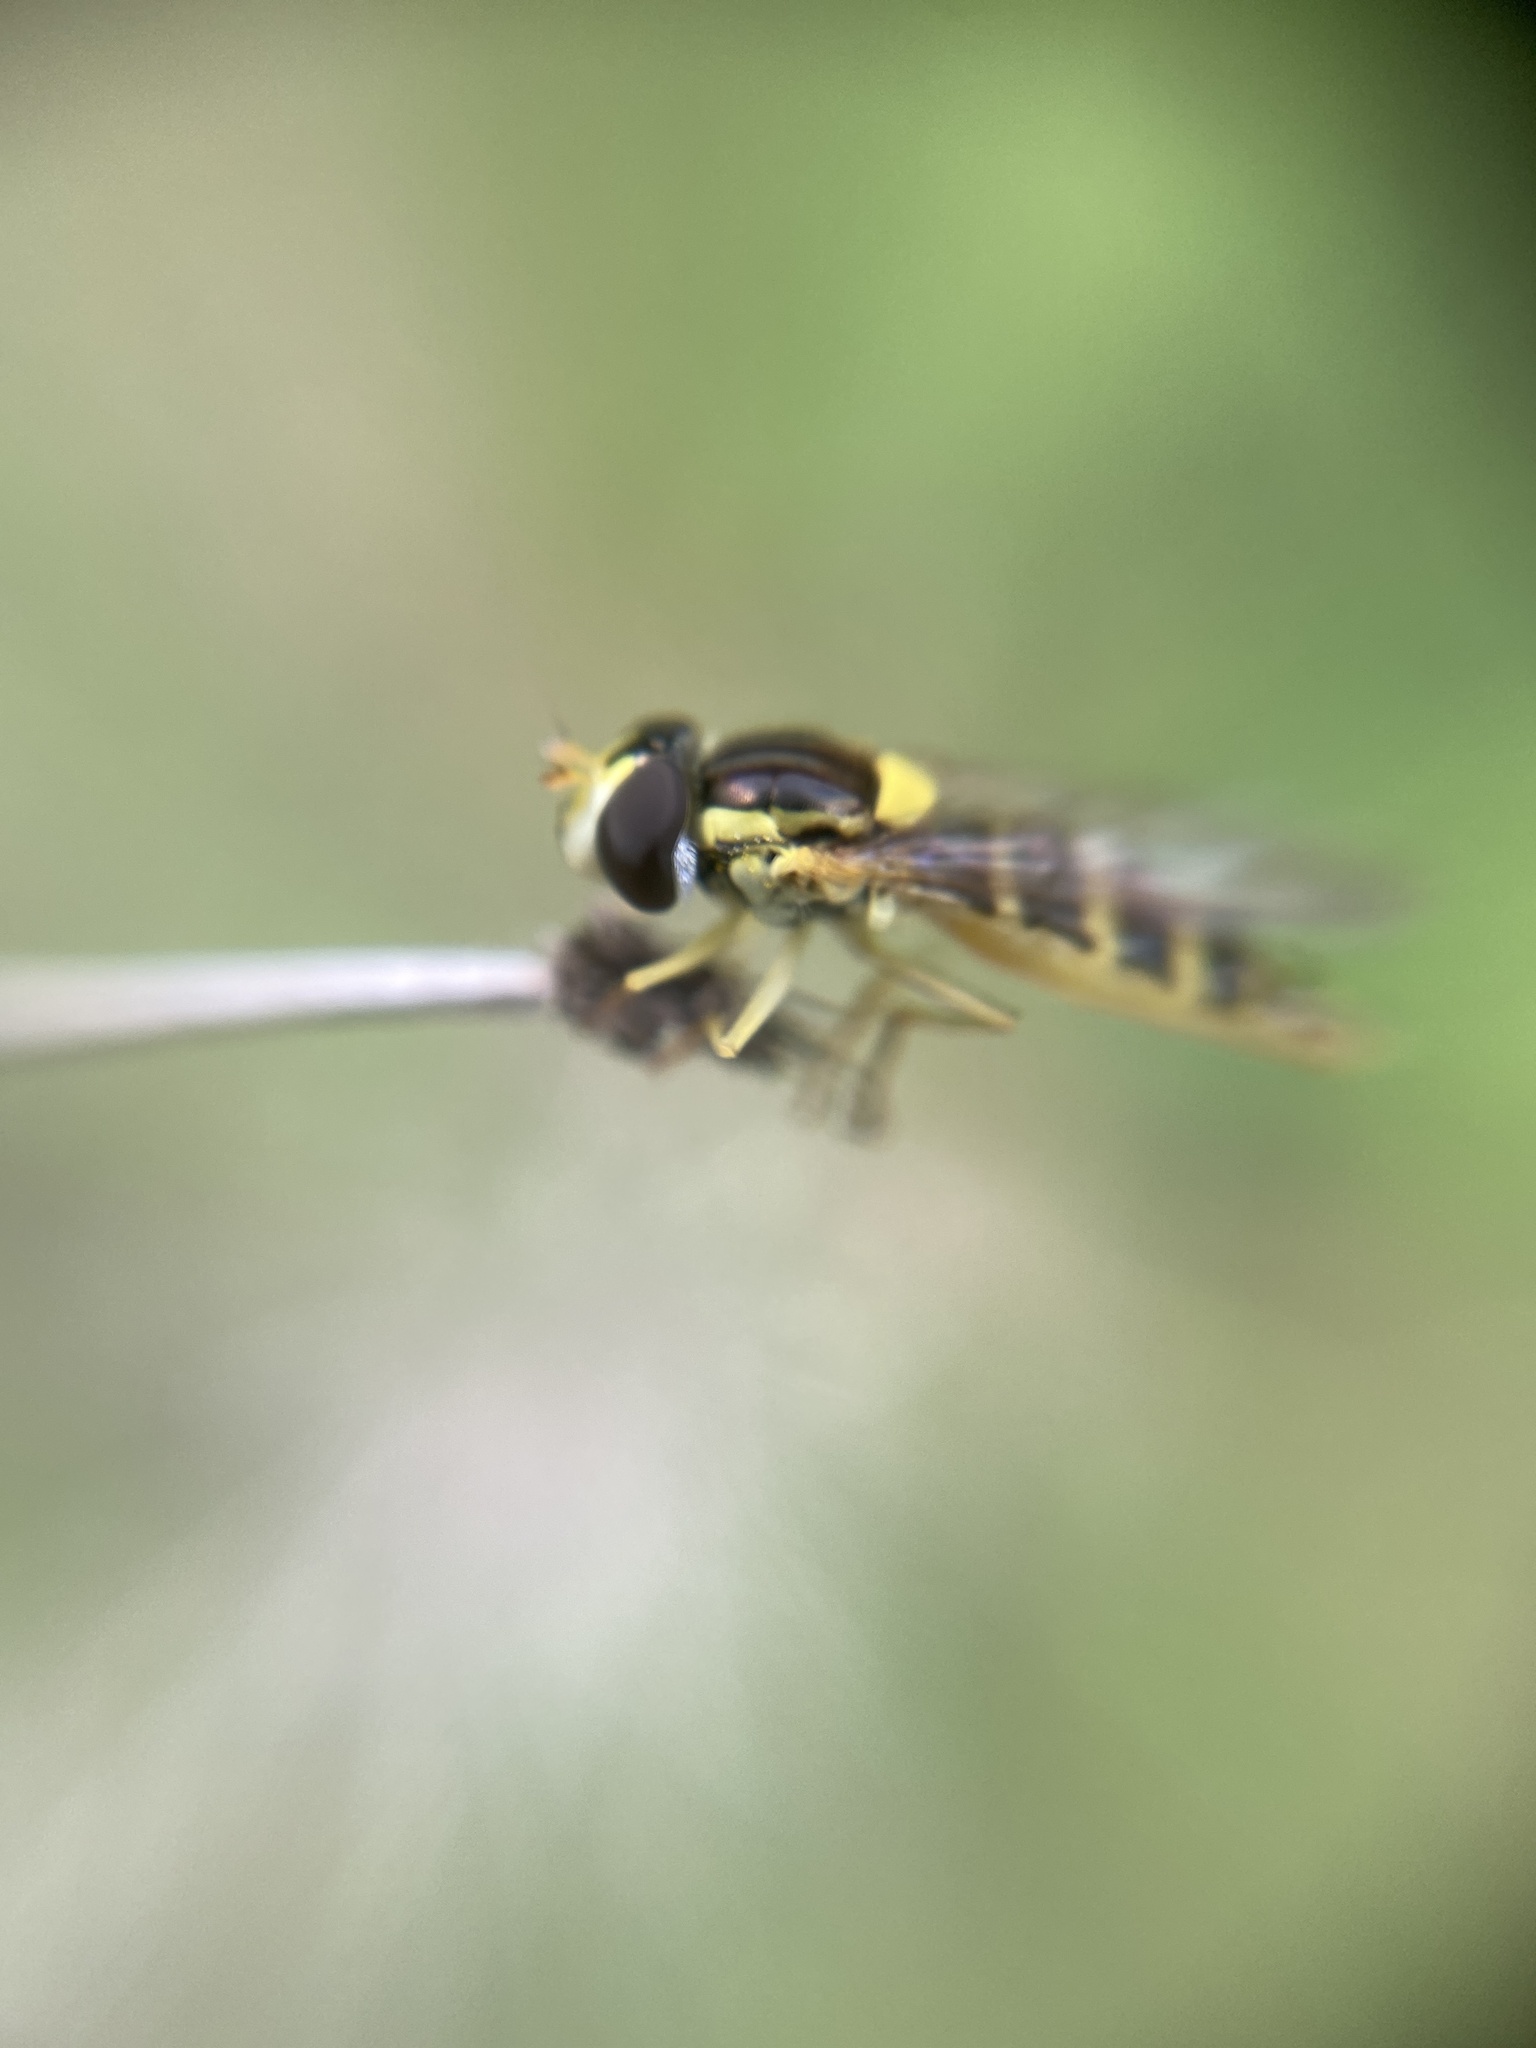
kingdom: Animalia
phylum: Arthropoda
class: Insecta
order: Diptera
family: Syrphidae
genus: Sphaerophoria
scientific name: Sphaerophoria
